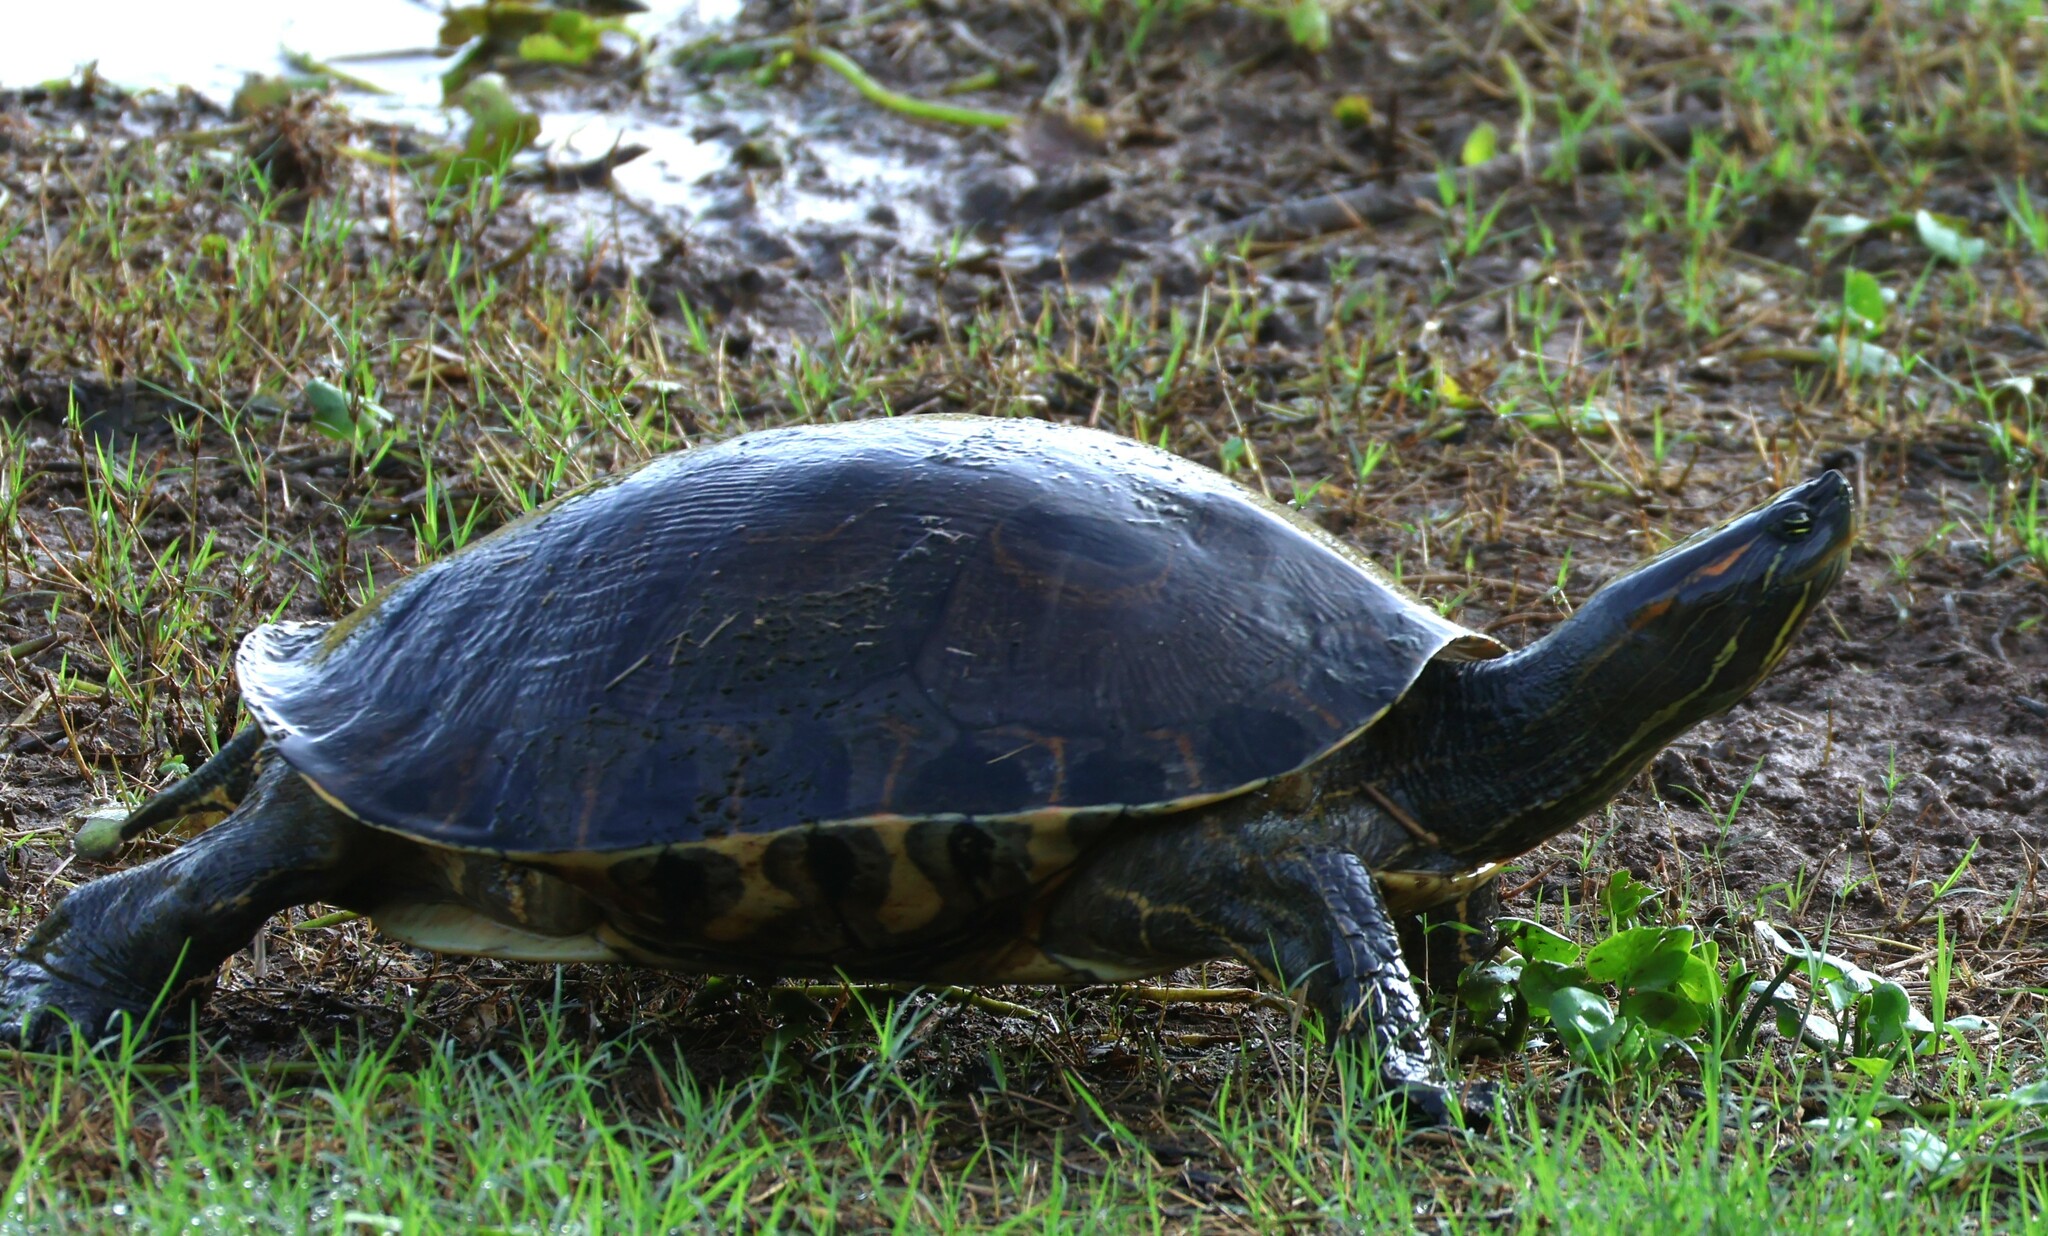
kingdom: Animalia
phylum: Chordata
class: Testudines
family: Emydidae
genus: Trachemys
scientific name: Trachemys venusta
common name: Mesoamerican slider
